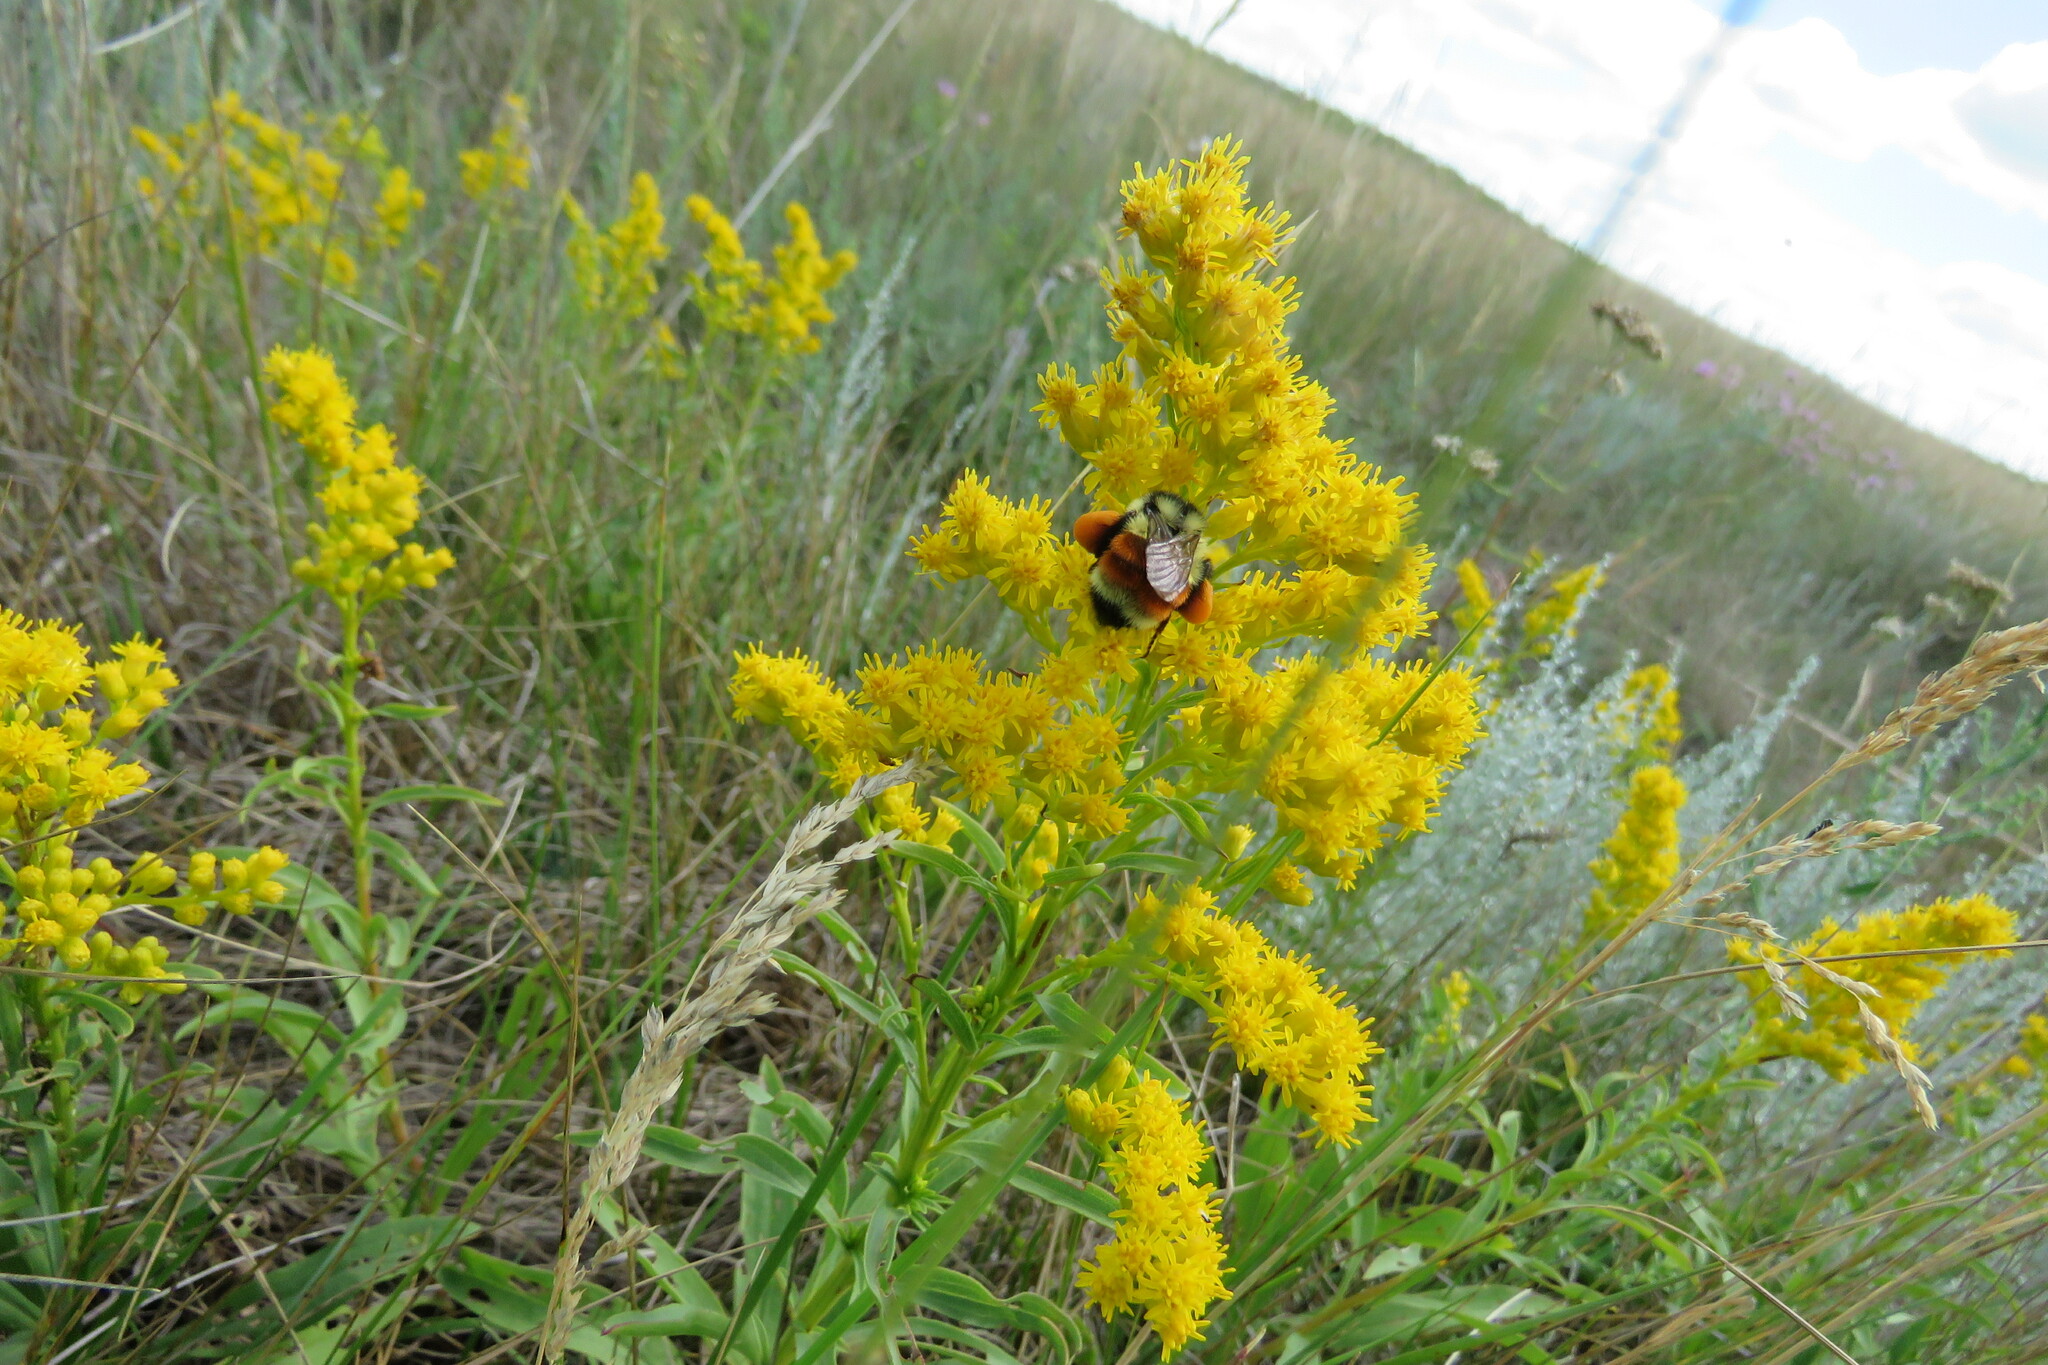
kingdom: Animalia
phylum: Arthropoda
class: Insecta
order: Hymenoptera
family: Apidae
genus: Bombus
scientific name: Bombus ternarius
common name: Tri-colored bumble bee
